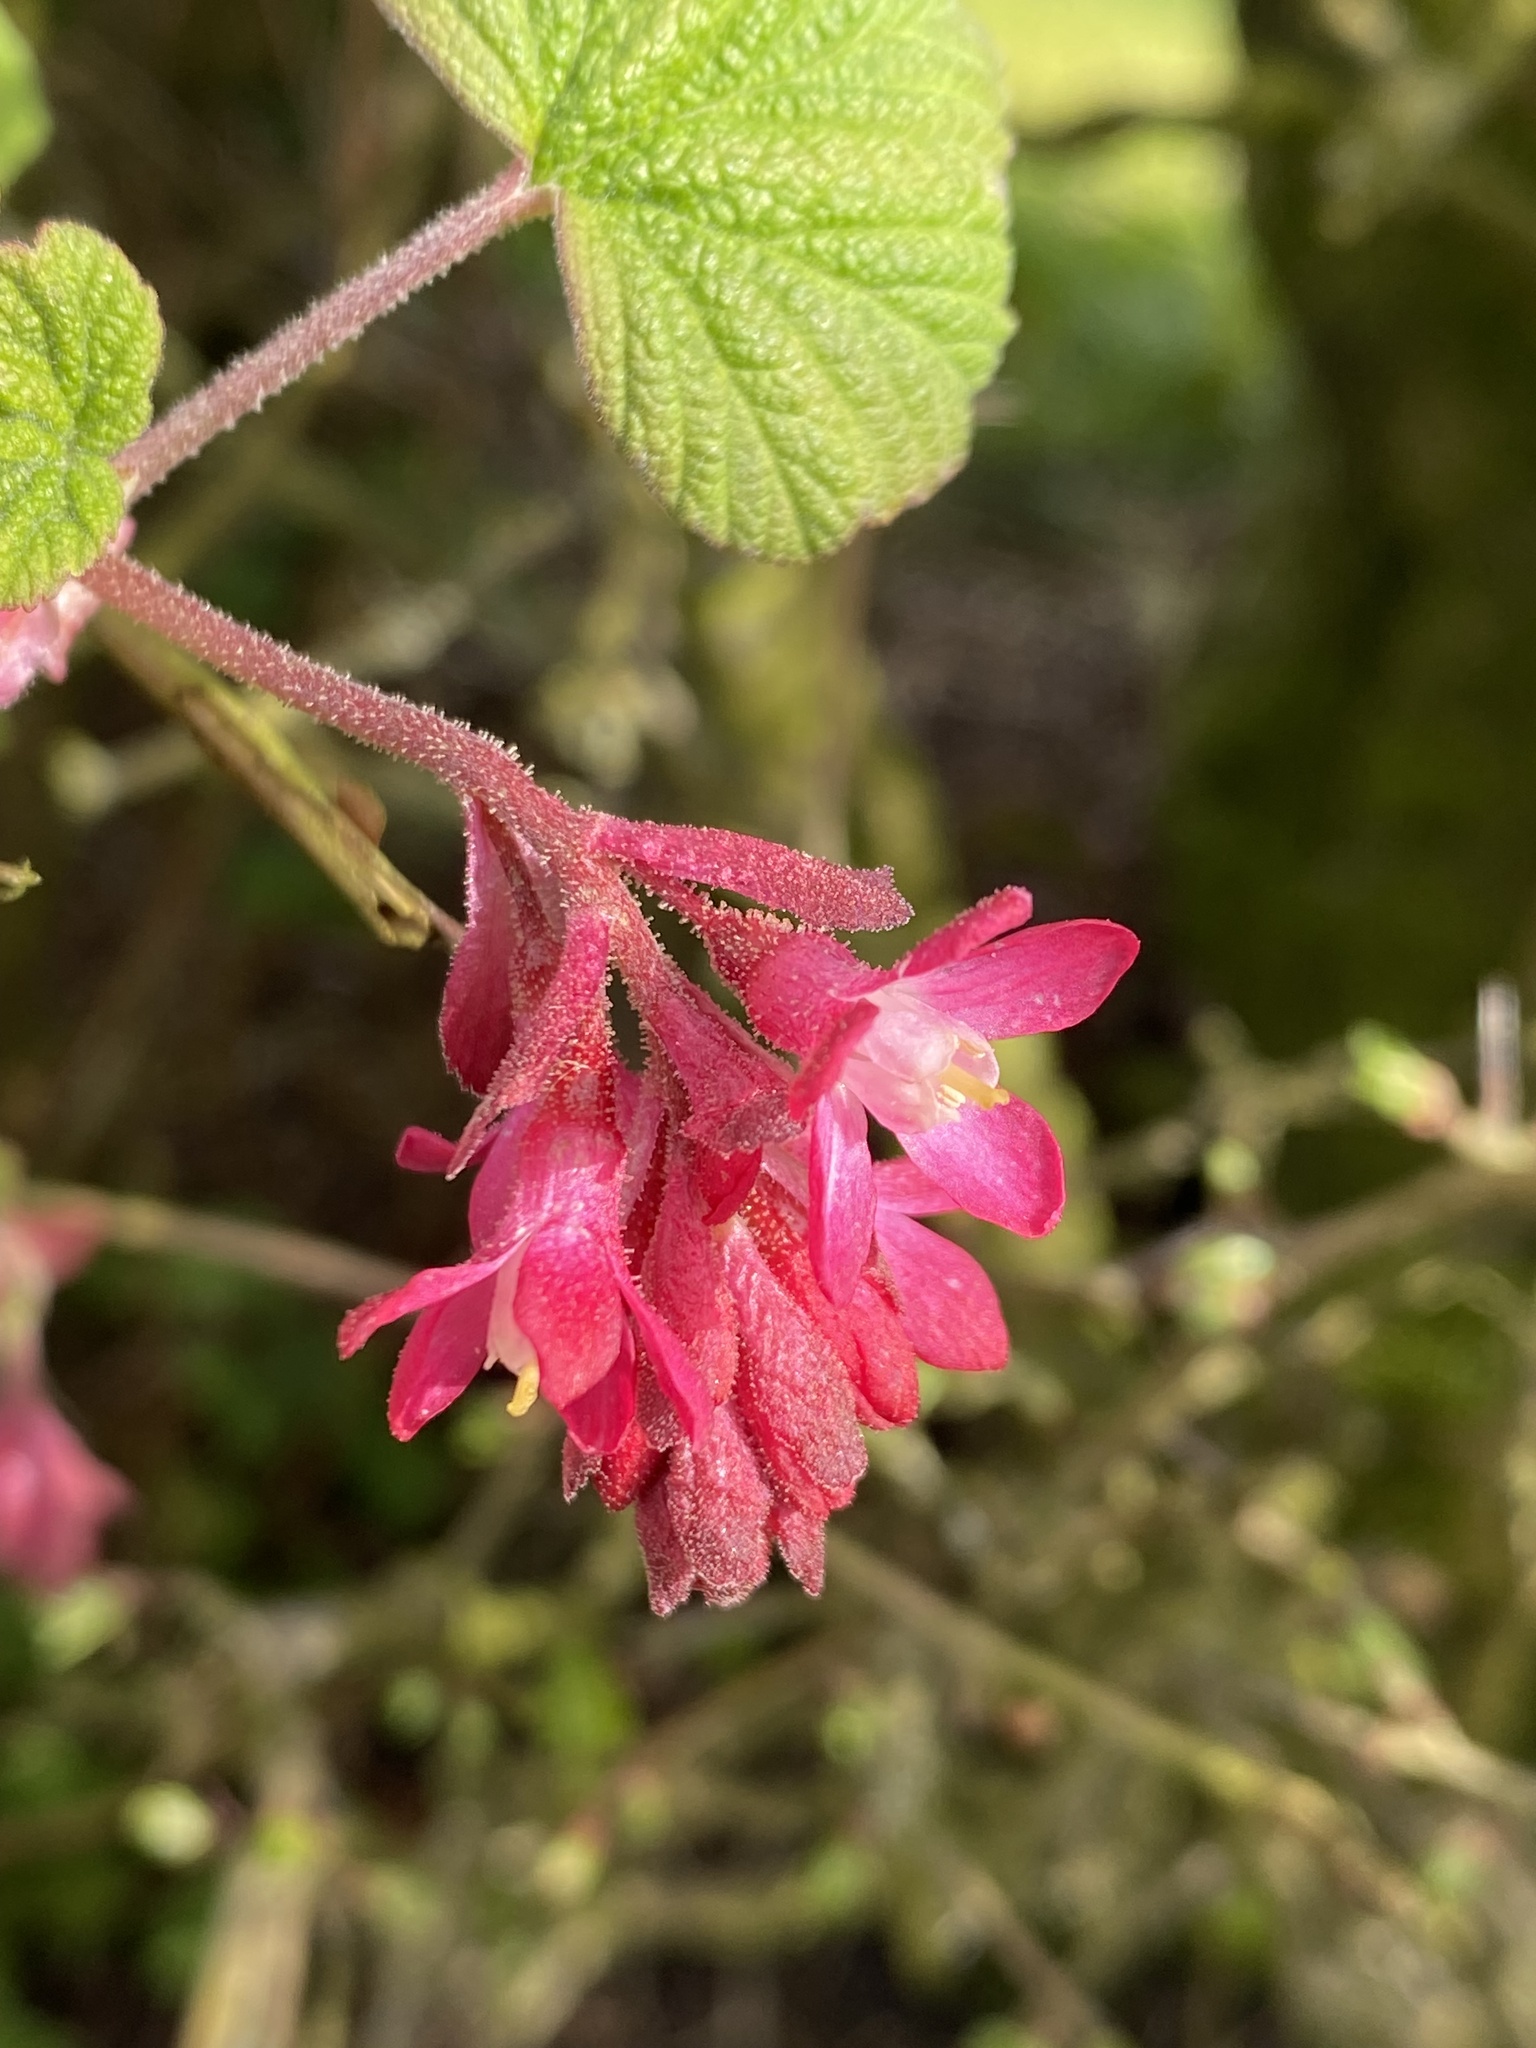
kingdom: Plantae
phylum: Tracheophyta
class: Magnoliopsida
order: Saxifragales
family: Grossulariaceae
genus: Ribes
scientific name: Ribes sanguineum
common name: Flowering currant
